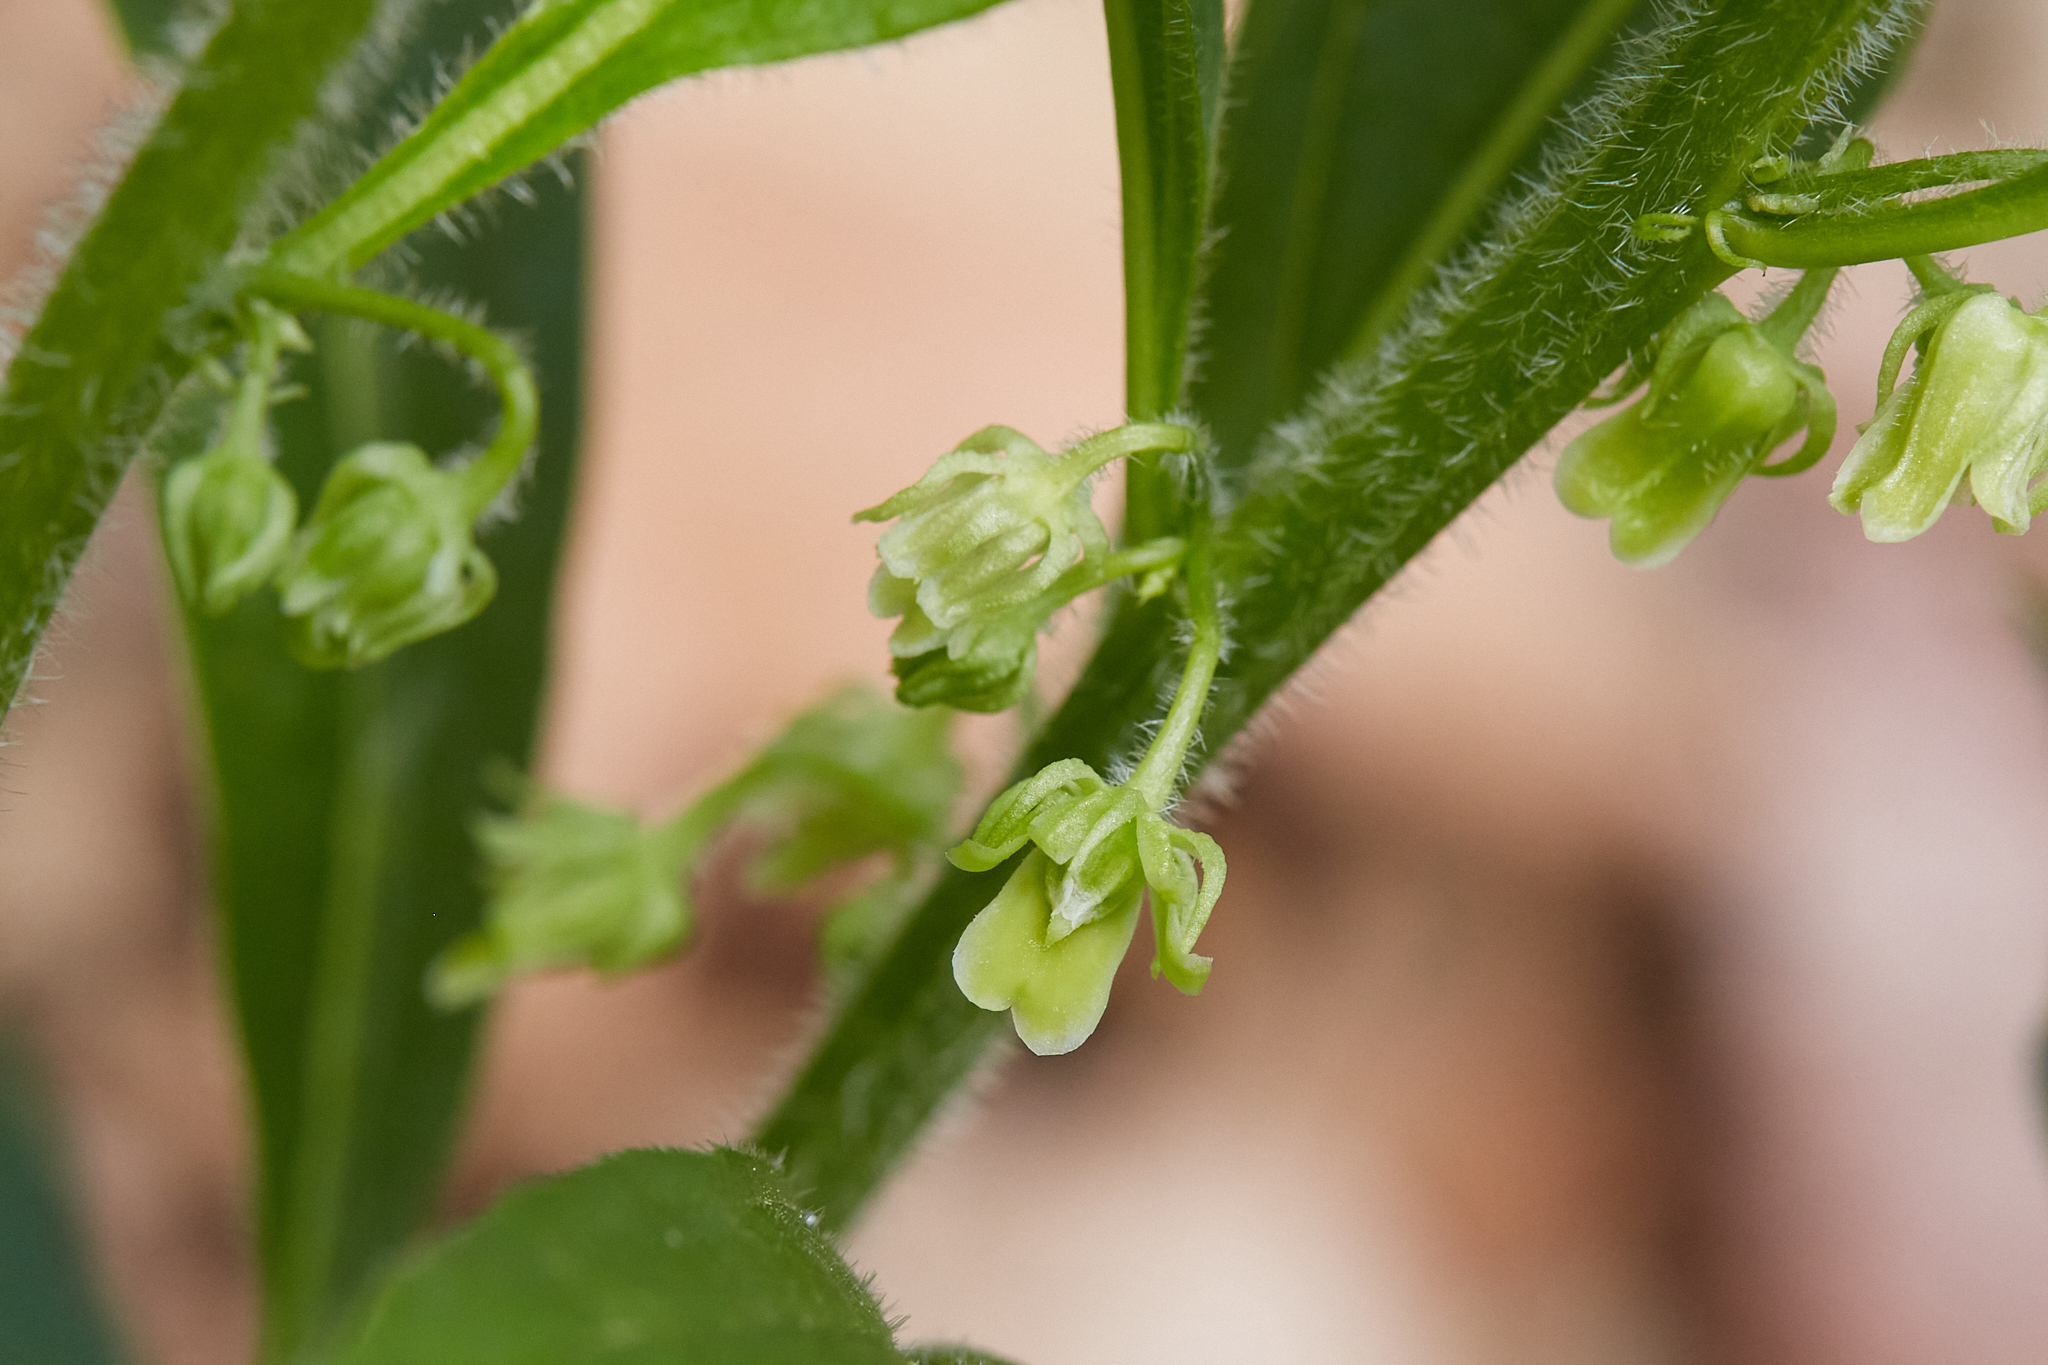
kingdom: Plantae
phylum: Tracheophyta
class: Magnoliopsida
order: Malpighiales
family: Violaceae
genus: Cubelium
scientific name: Cubelium concolor
